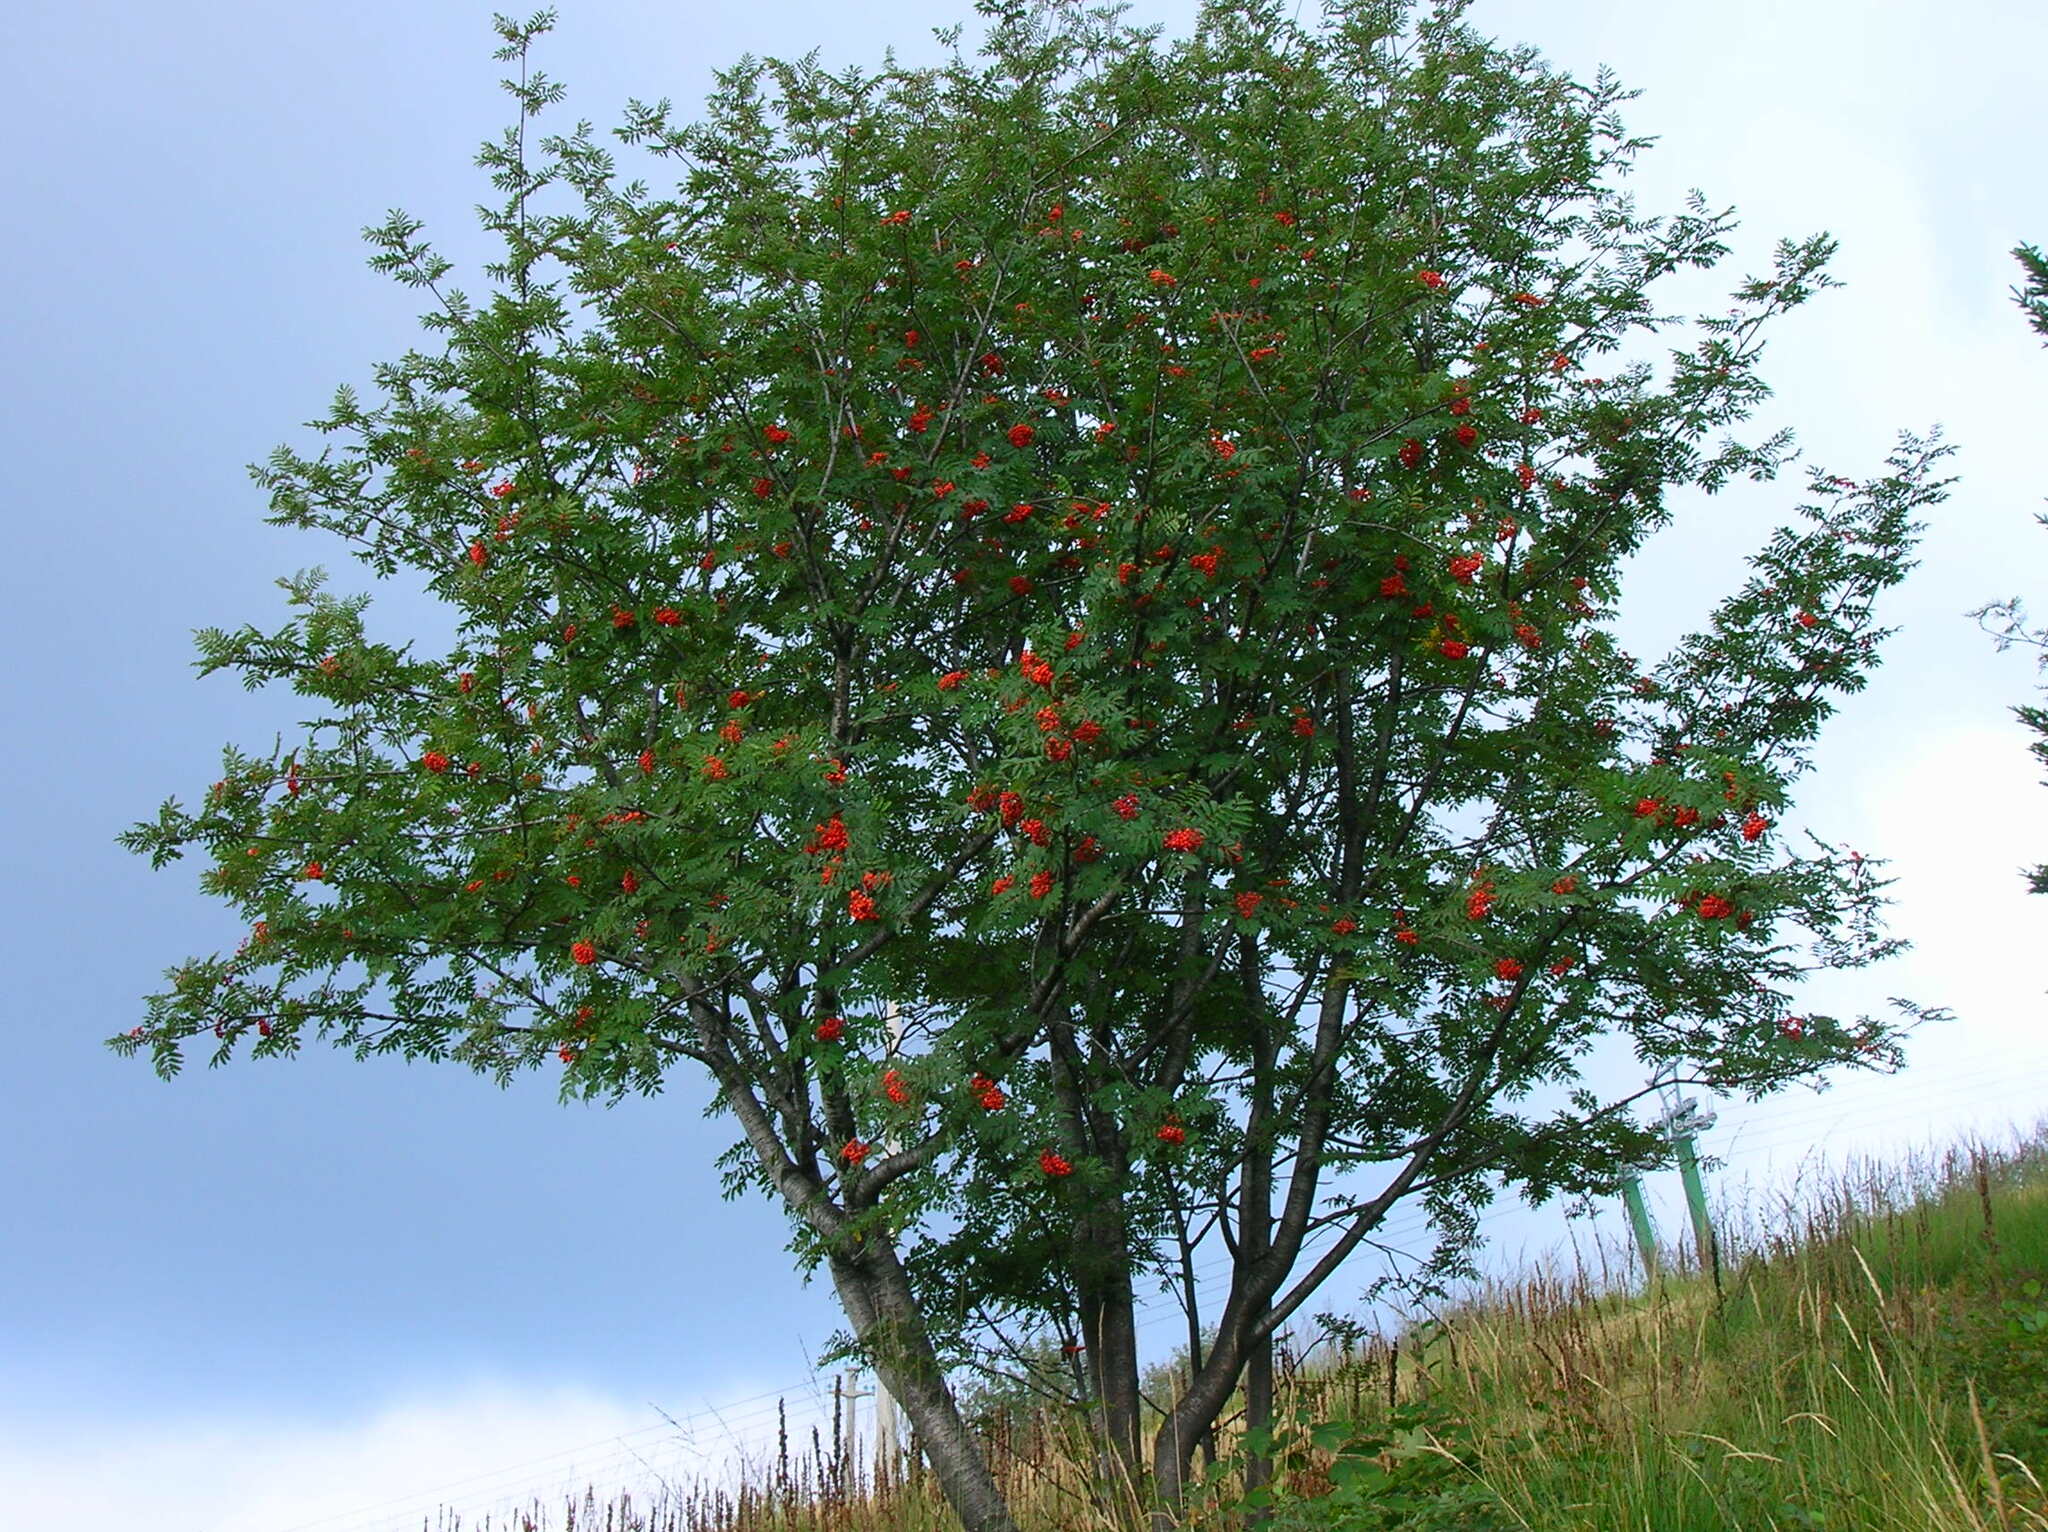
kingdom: Plantae
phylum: Tracheophyta
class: Magnoliopsida
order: Rosales
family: Rosaceae
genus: Sorbus
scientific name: Sorbus aucuparia
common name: Rowan
